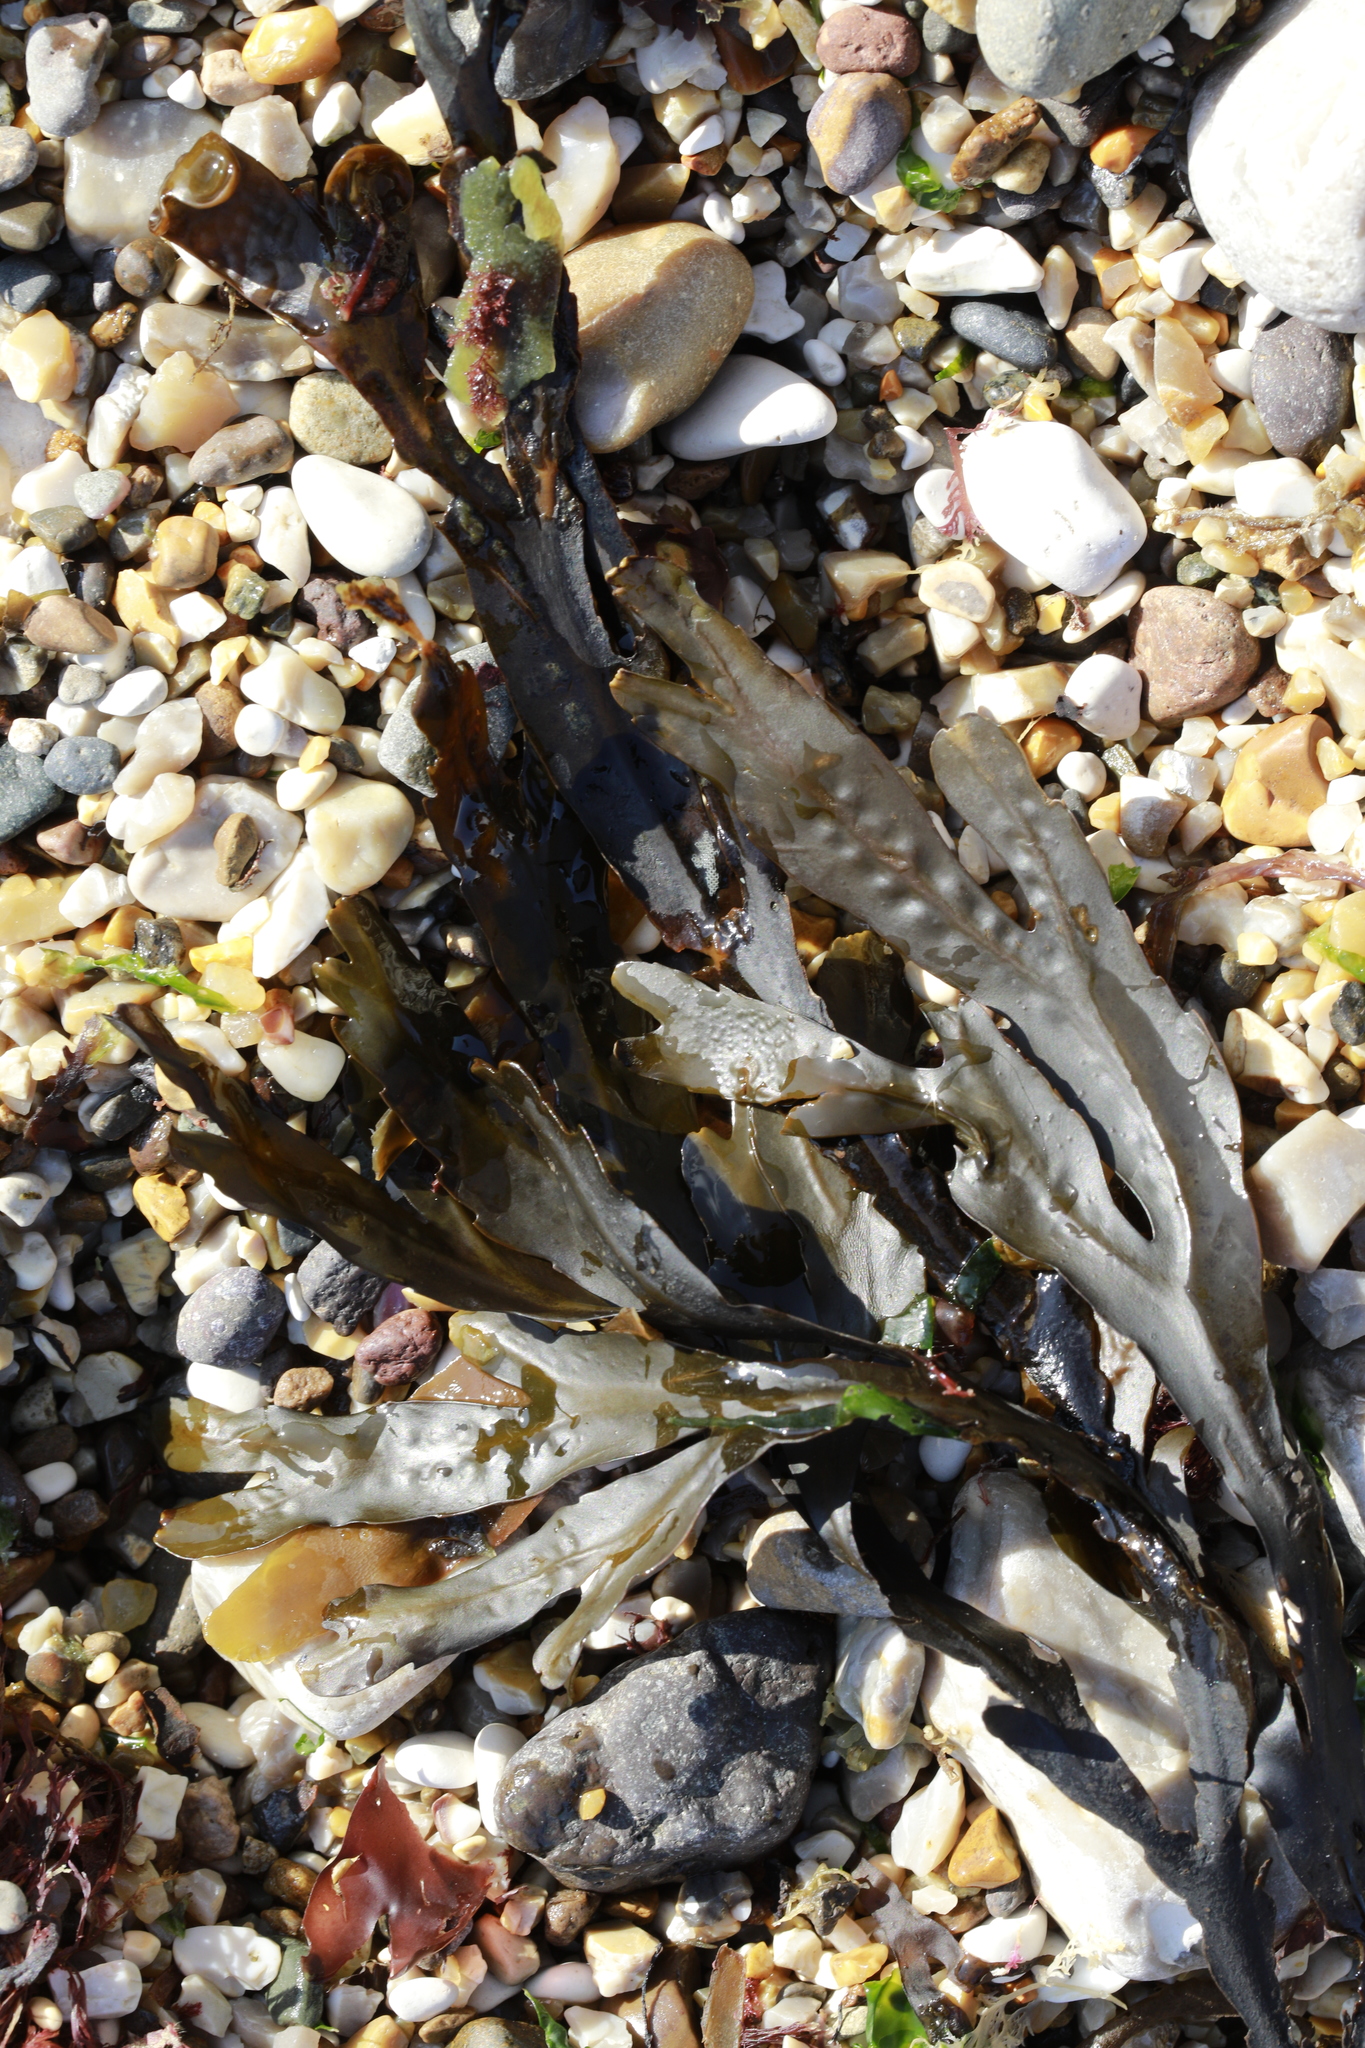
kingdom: Chromista
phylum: Ochrophyta
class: Phaeophyceae
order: Fucales
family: Fucaceae
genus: Fucus
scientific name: Fucus serratus
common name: Toothed wrack
